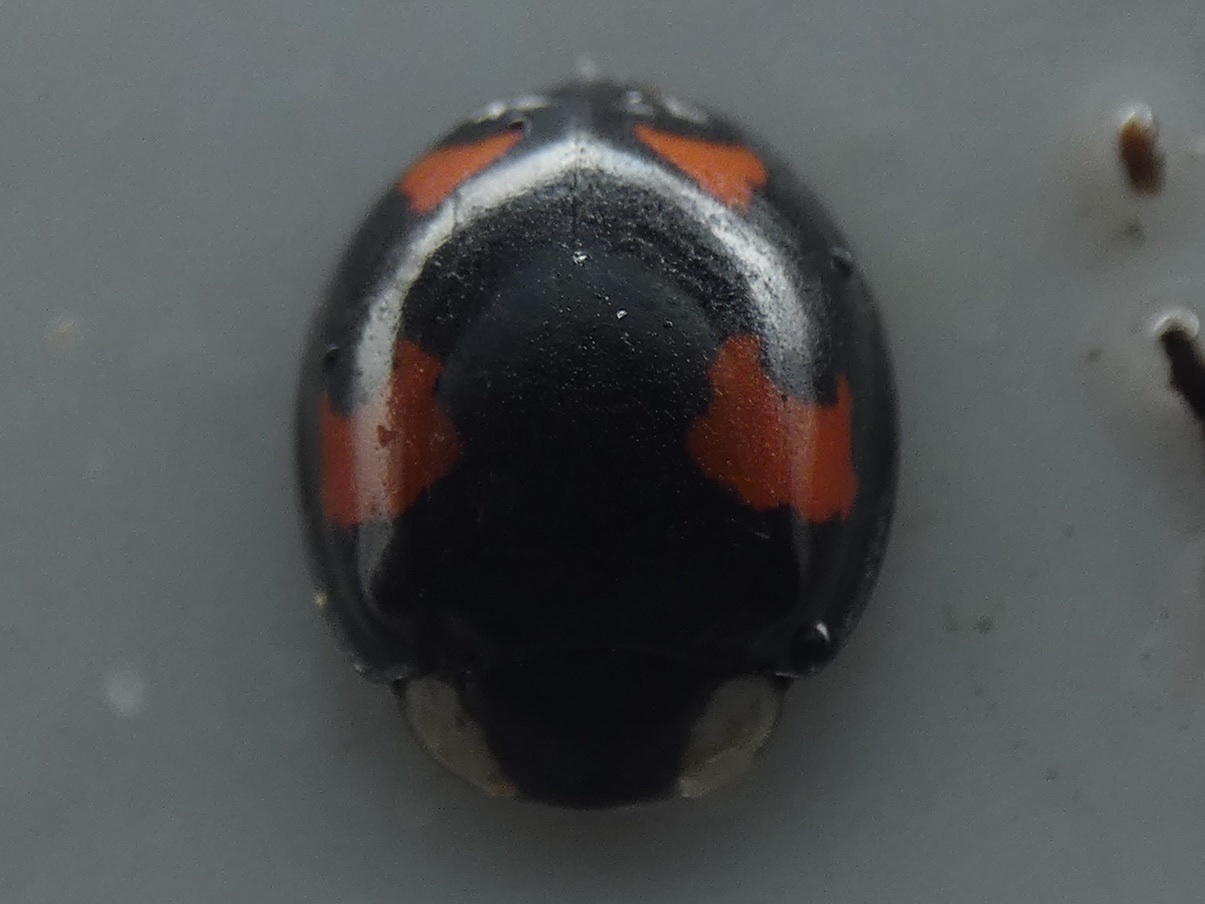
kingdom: Animalia
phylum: Arthropoda
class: Insecta
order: Coleoptera
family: Coccinellidae
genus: Harmonia
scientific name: Harmonia axyridis
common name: Harlequin ladybird
